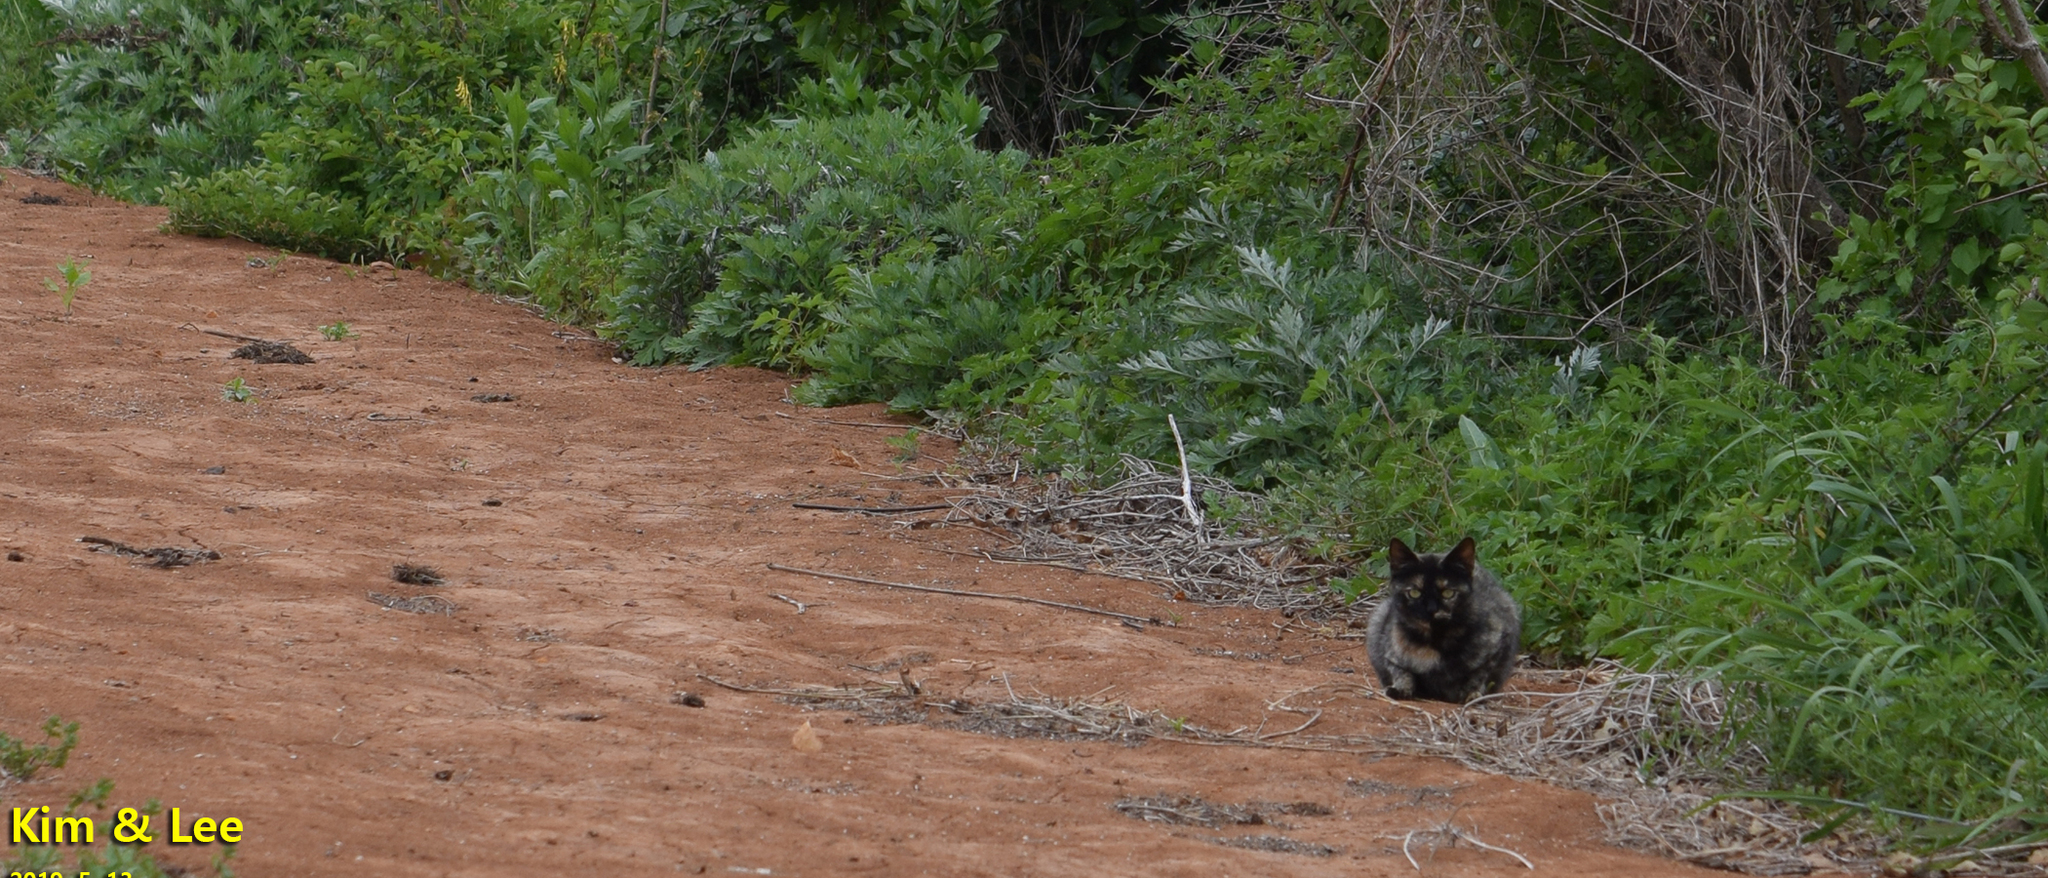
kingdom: Animalia
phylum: Chordata
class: Mammalia
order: Carnivora
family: Felidae
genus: Felis
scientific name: Felis catus
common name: Domestic cat
